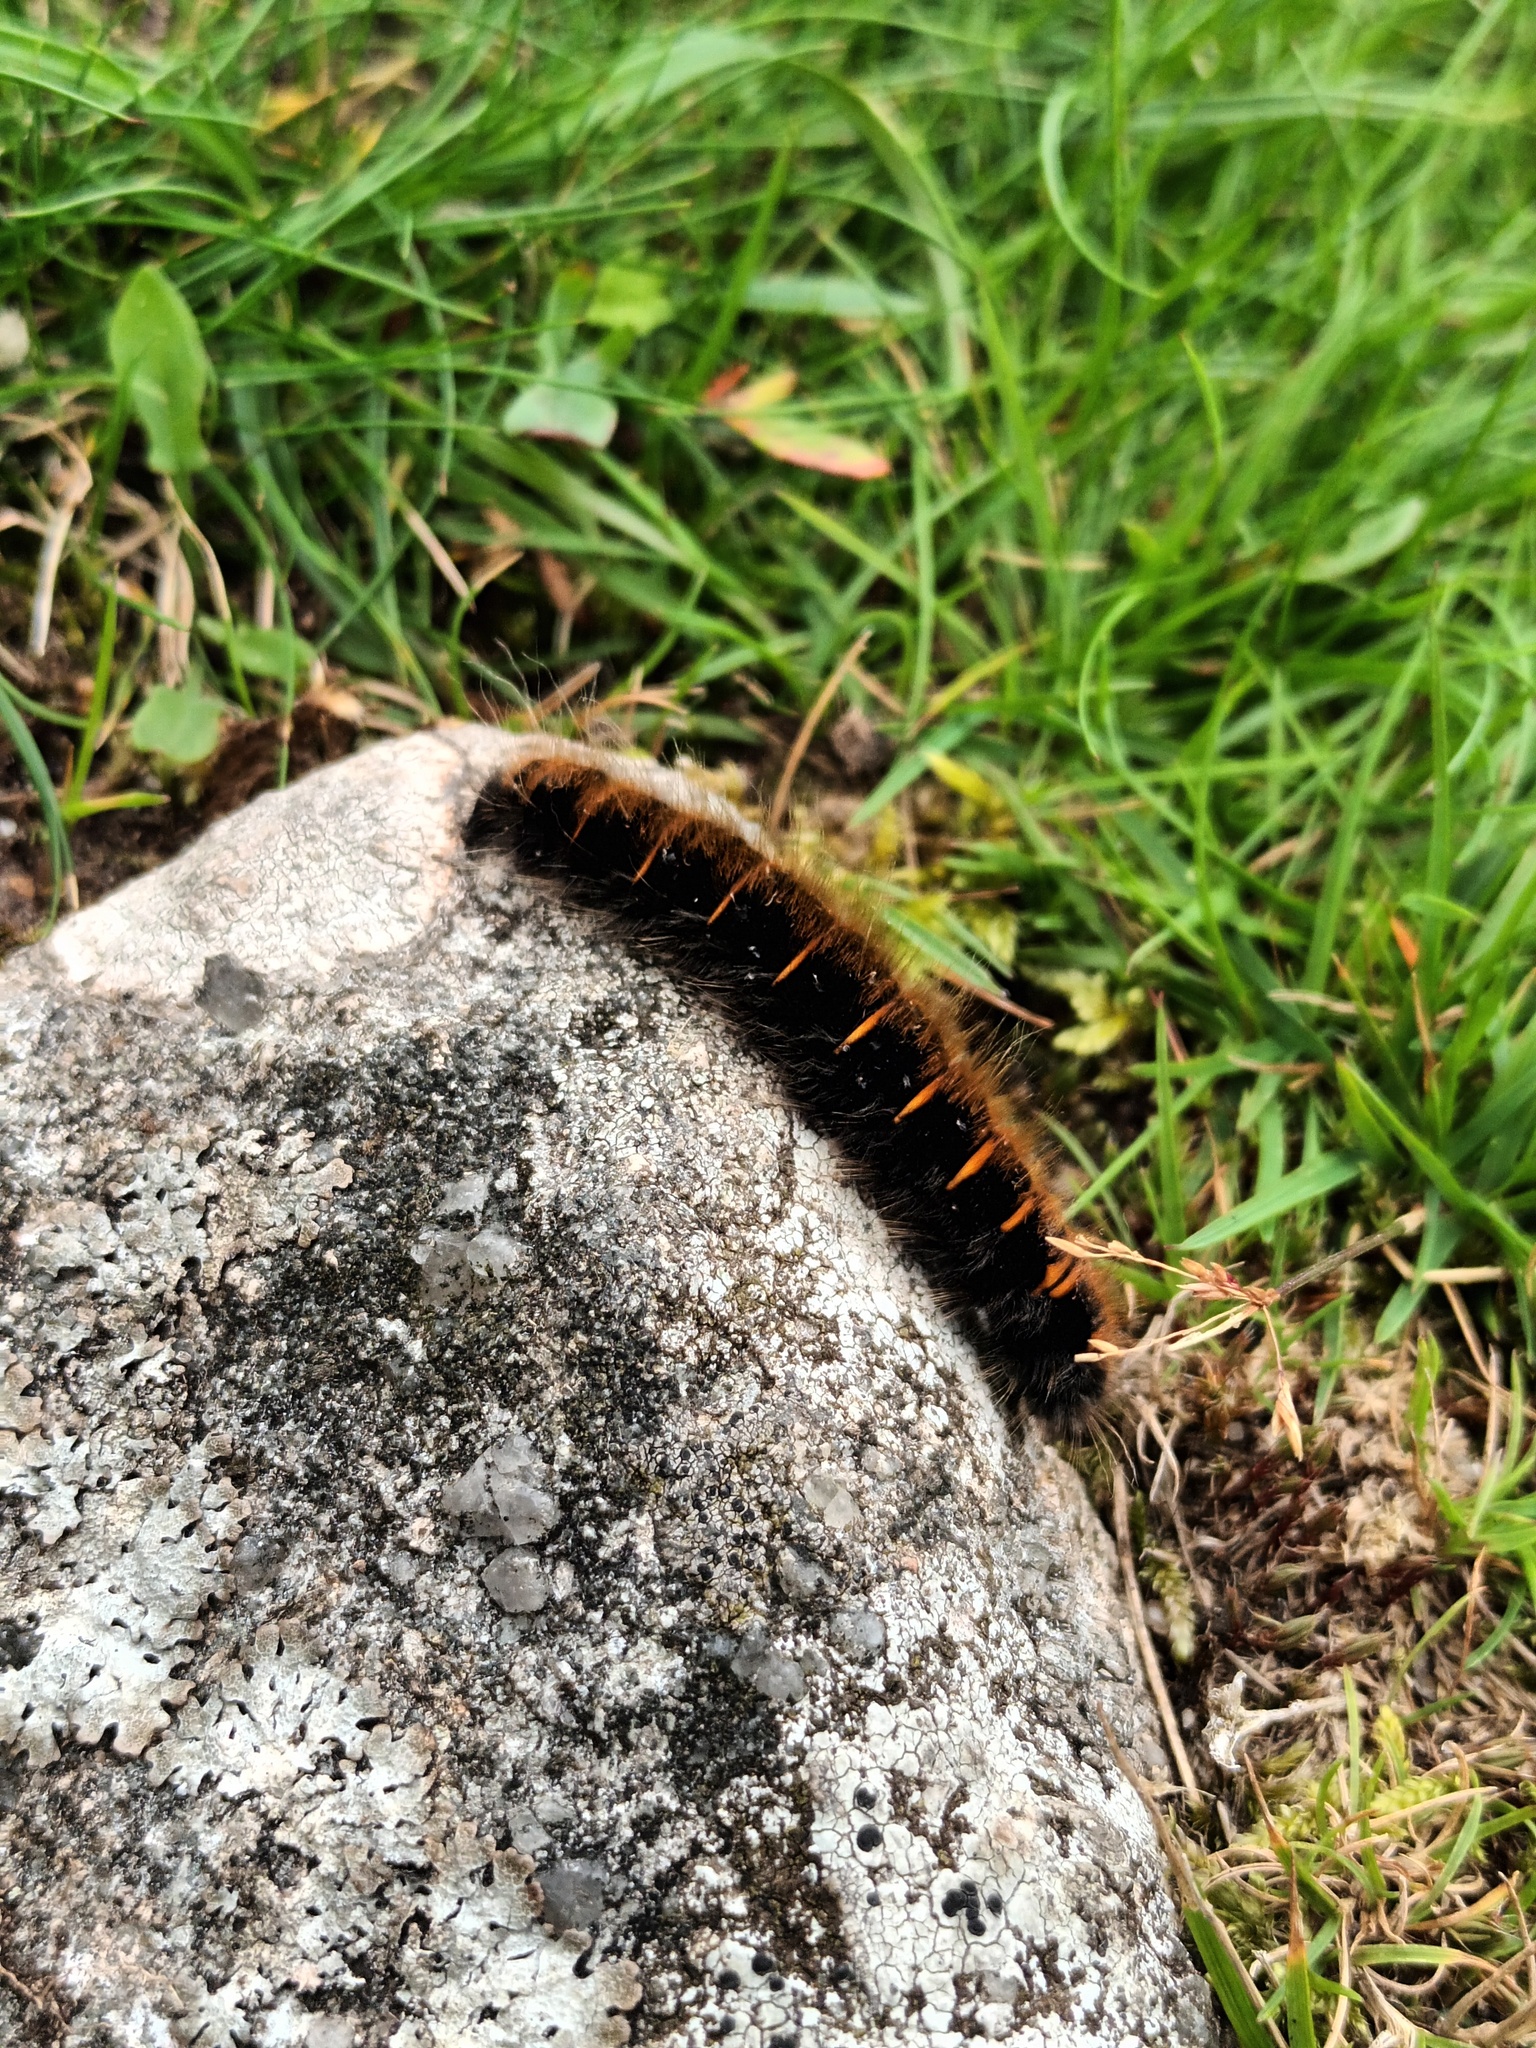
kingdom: Animalia
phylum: Arthropoda
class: Insecta
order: Lepidoptera
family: Lasiocampidae
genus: Macrothylacia
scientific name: Macrothylacia rubi
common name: Fox moth
